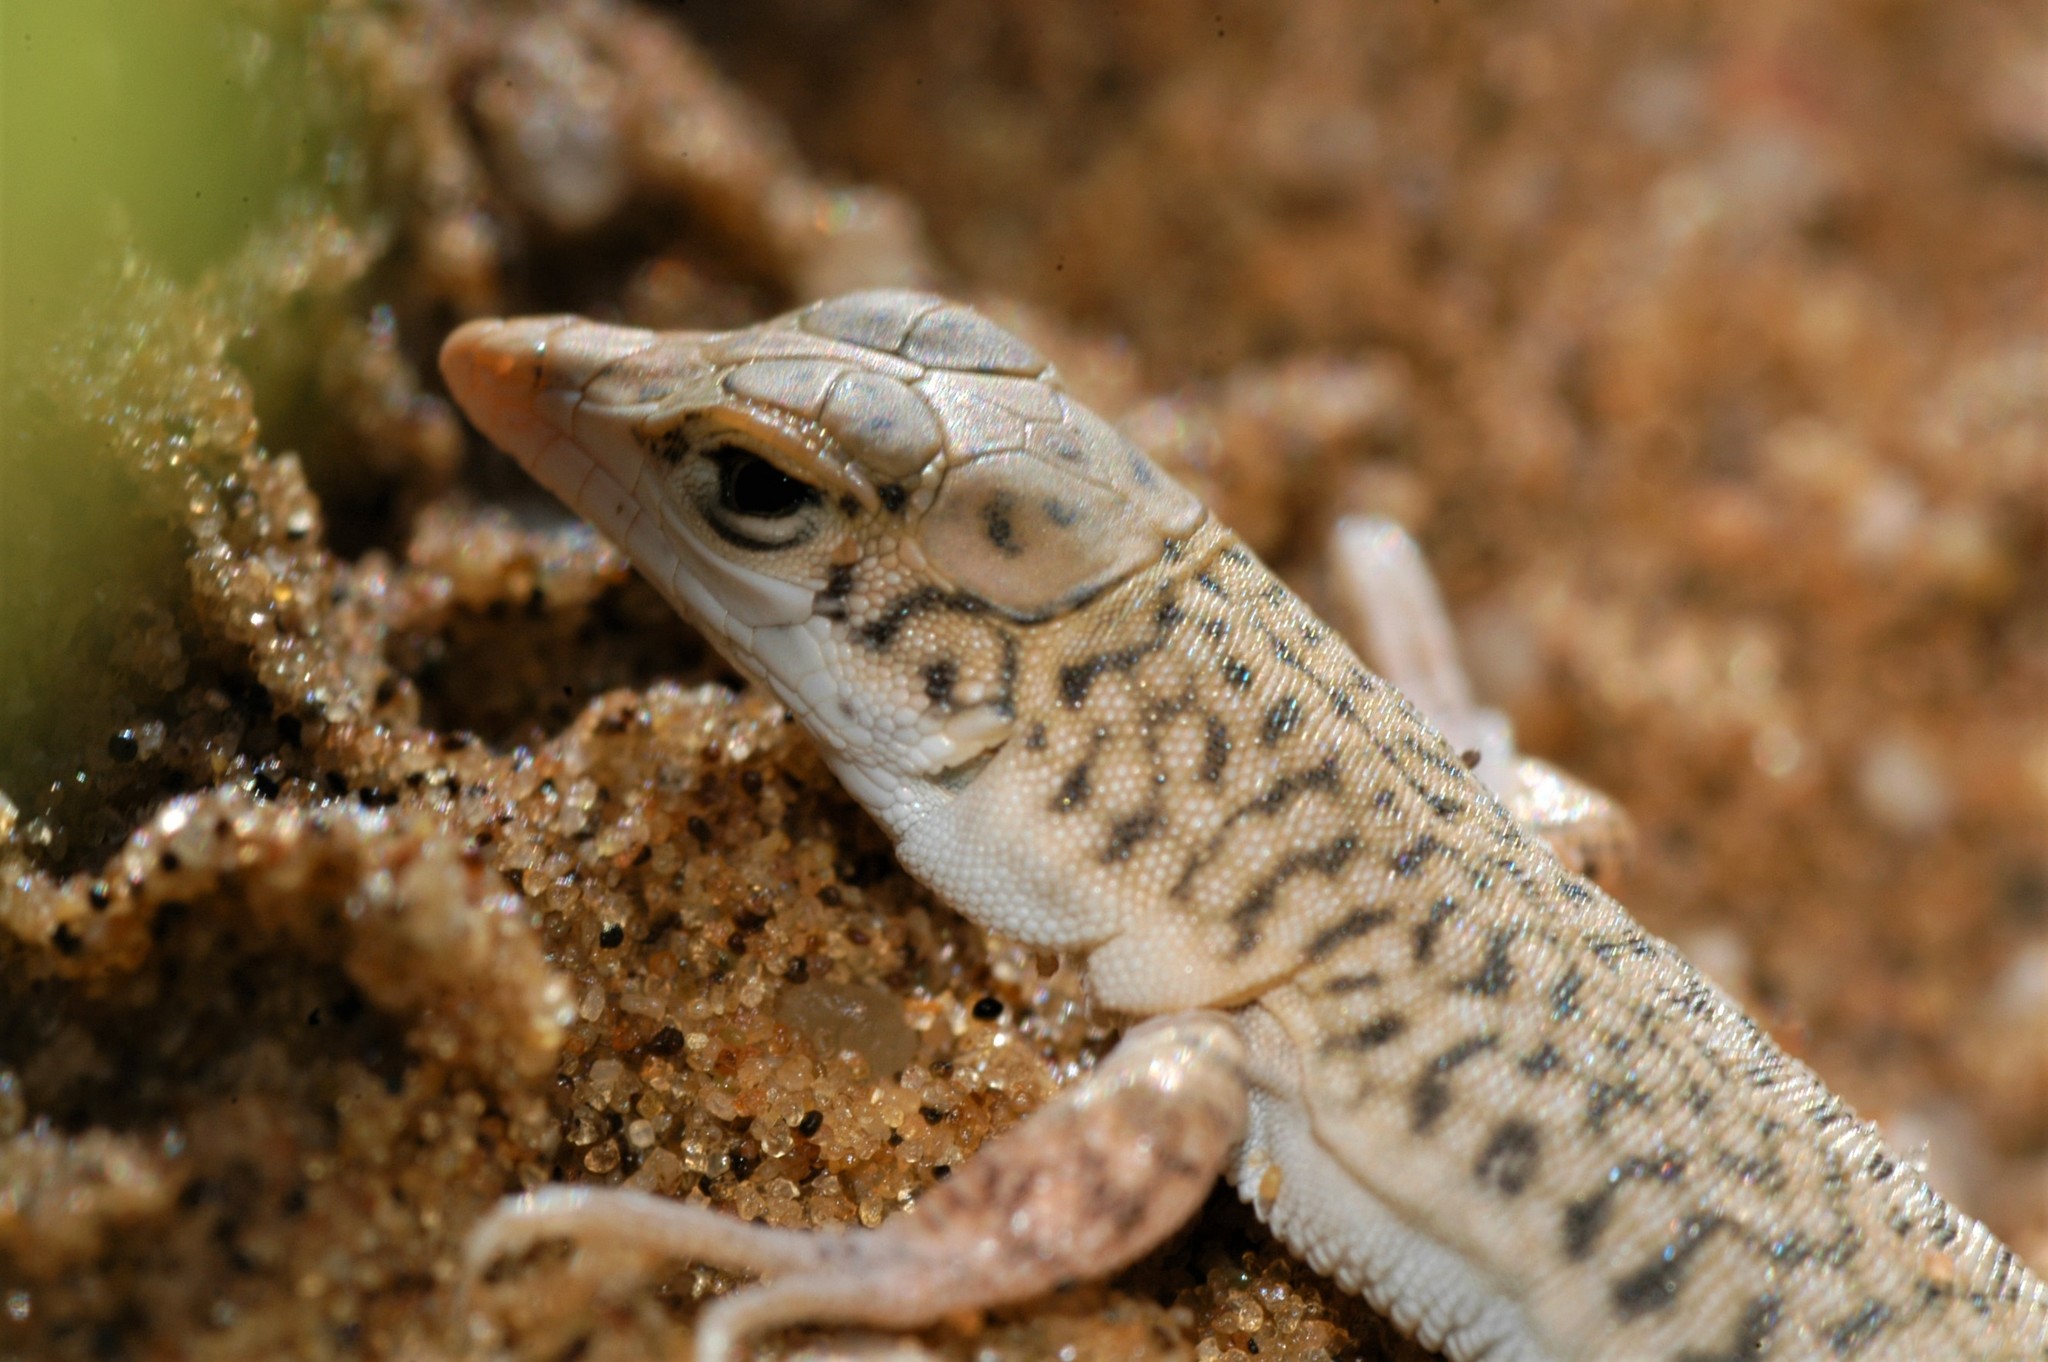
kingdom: Animalia
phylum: Chordata
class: Squamata
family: Lacertidae
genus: Meroles
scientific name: Meroles reticulatus
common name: Reticulate sand lizard
